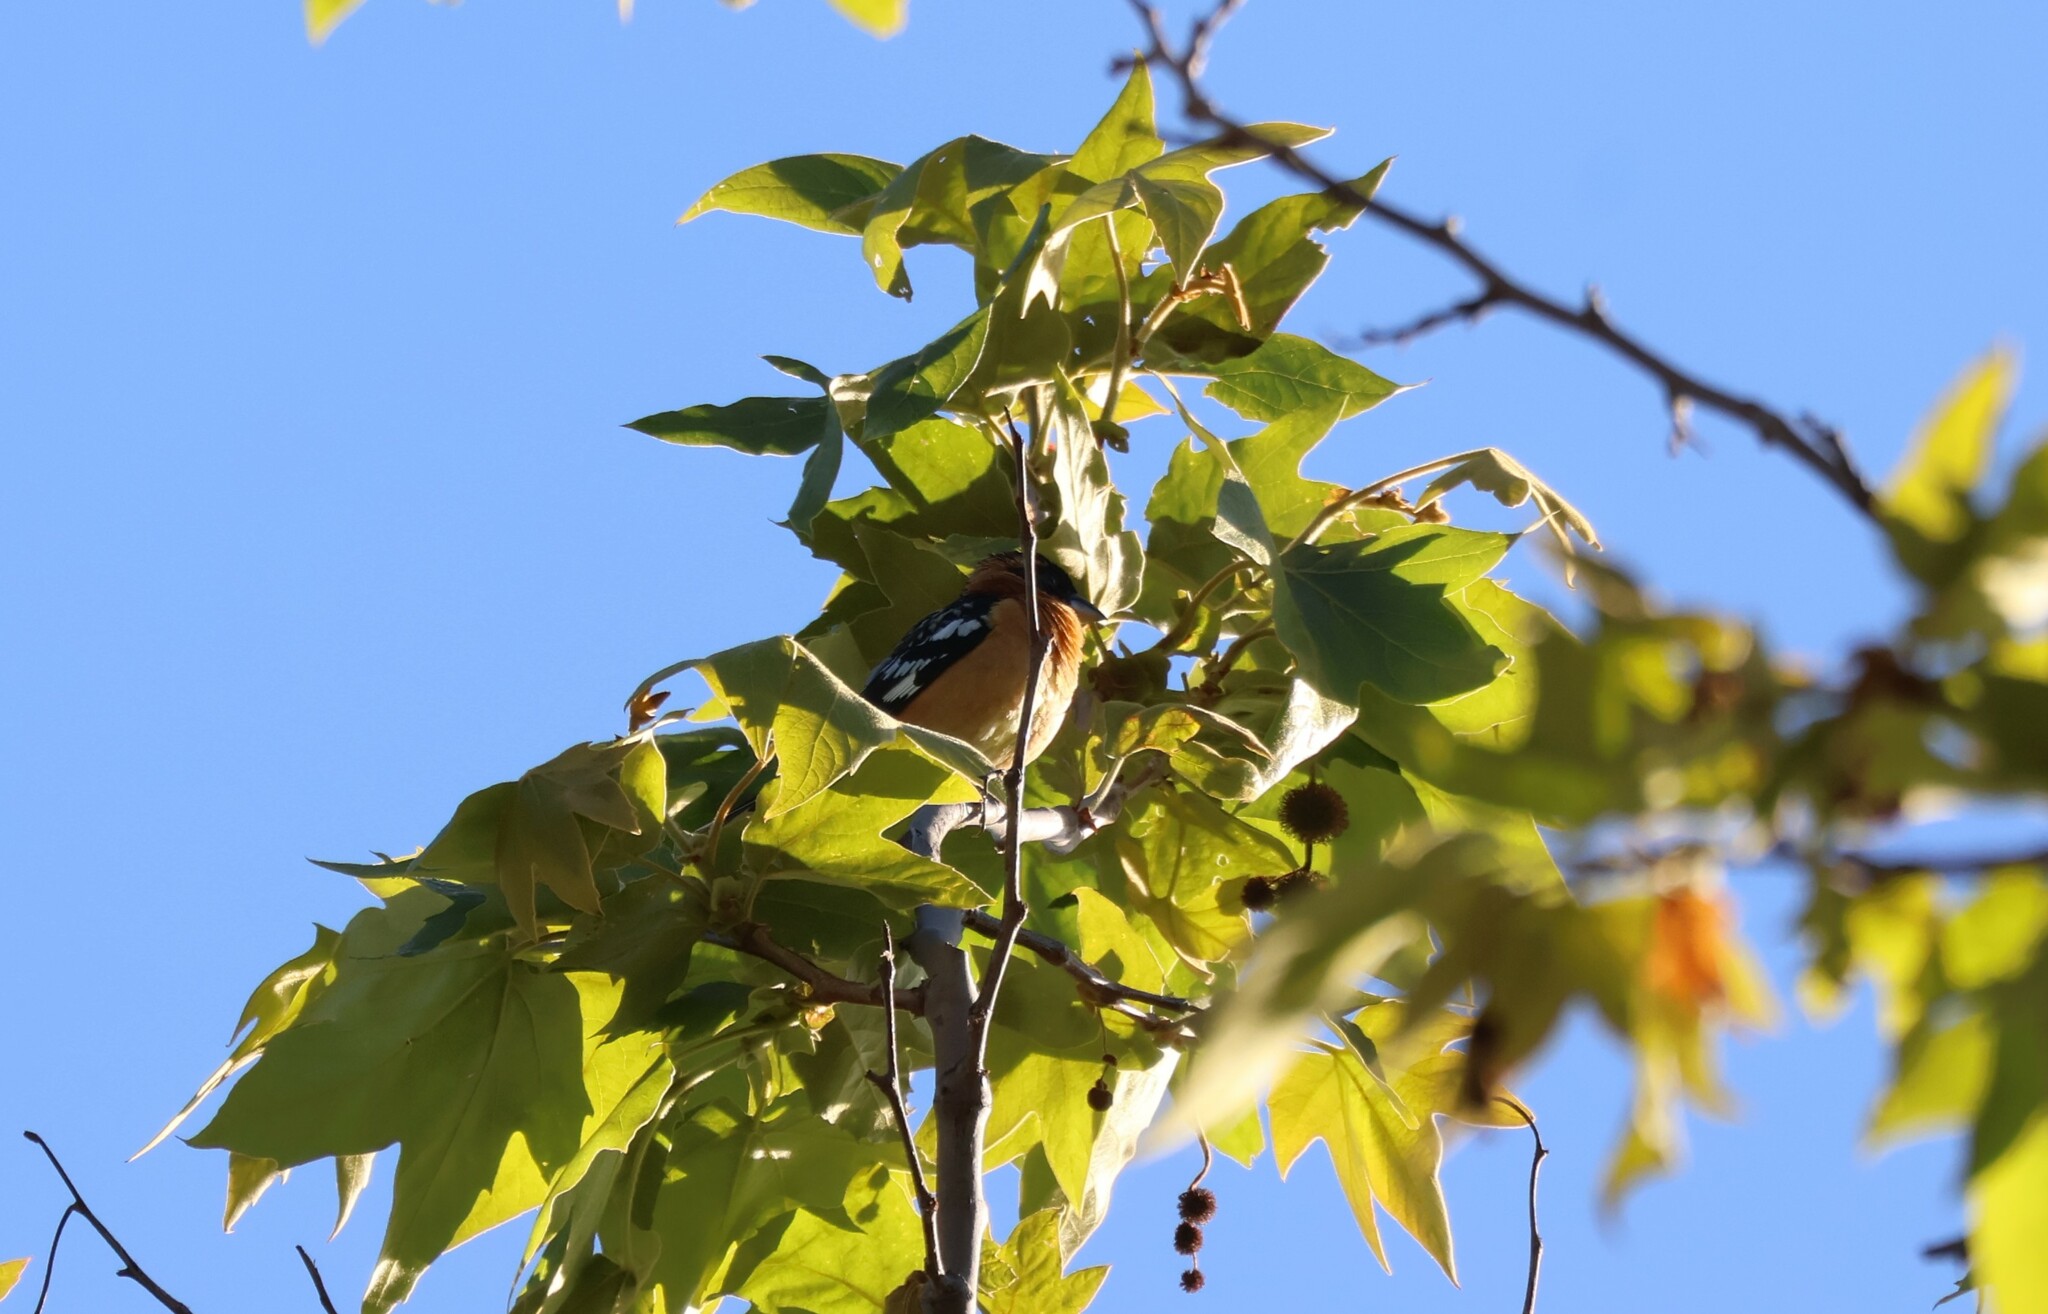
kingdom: Animalia
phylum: Chordata
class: Aves
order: Passeriformes
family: Cardinalidae
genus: Pheucticus
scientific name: Pheucticus melanocephalus
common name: Black-headed grosbeak
